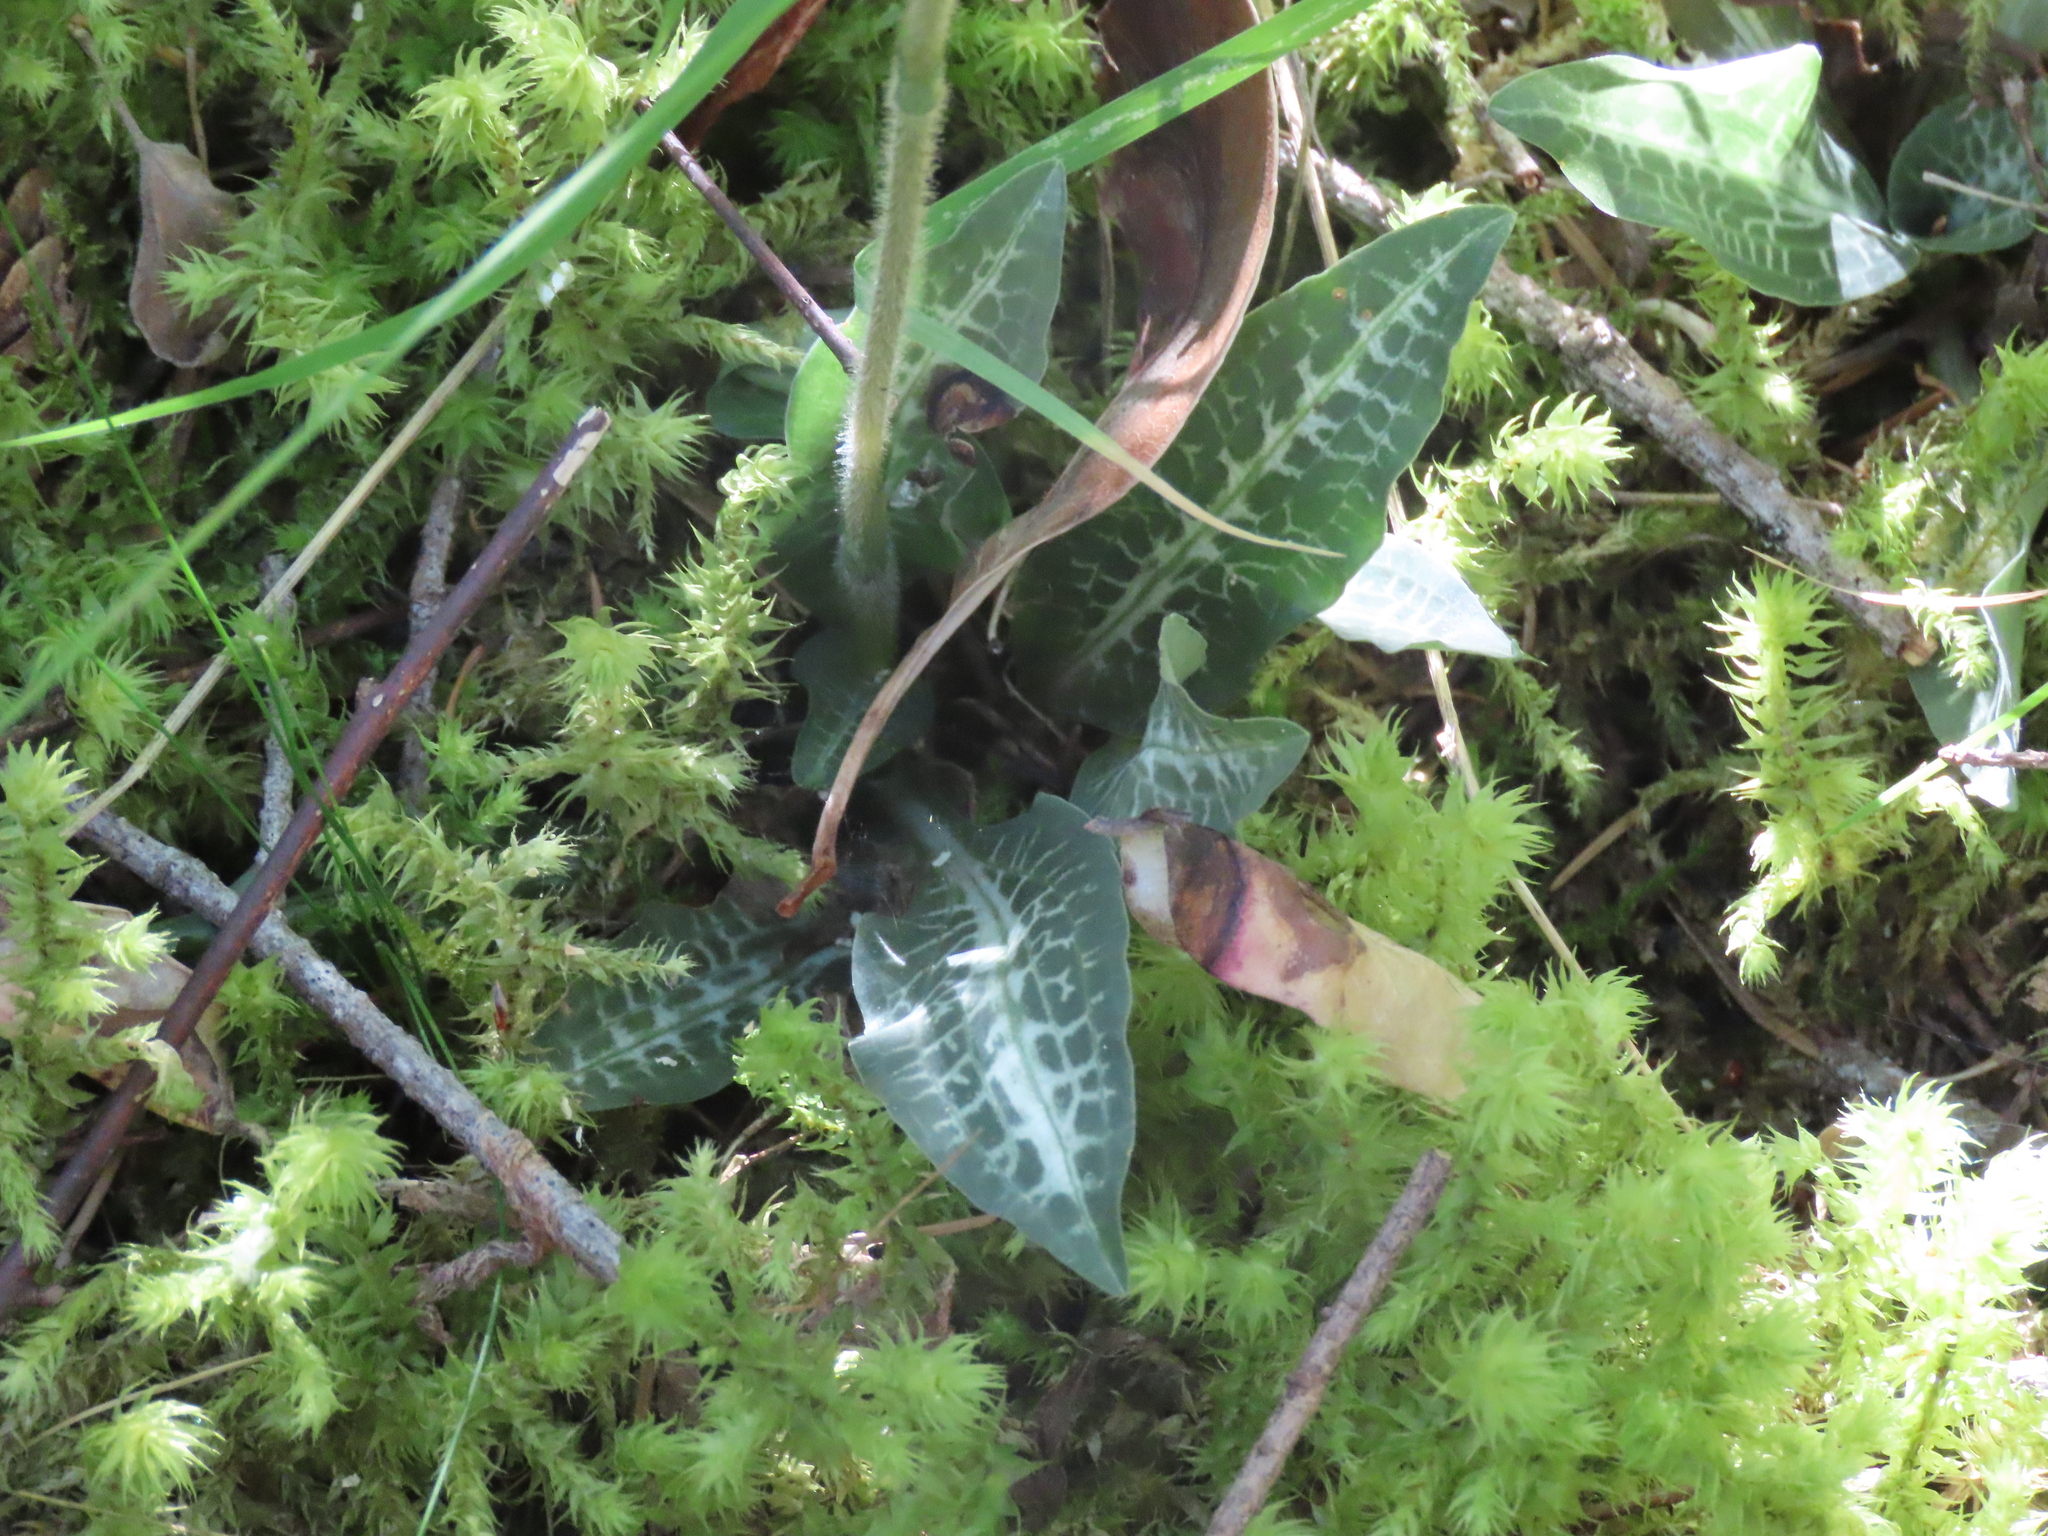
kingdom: Plantae
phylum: Tracheophyta
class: Liliopsida
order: Asparagales
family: Orchidaceae
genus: Goodyera
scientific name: Goodyera oblongifolia
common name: Giant rattlesnake-plantain
